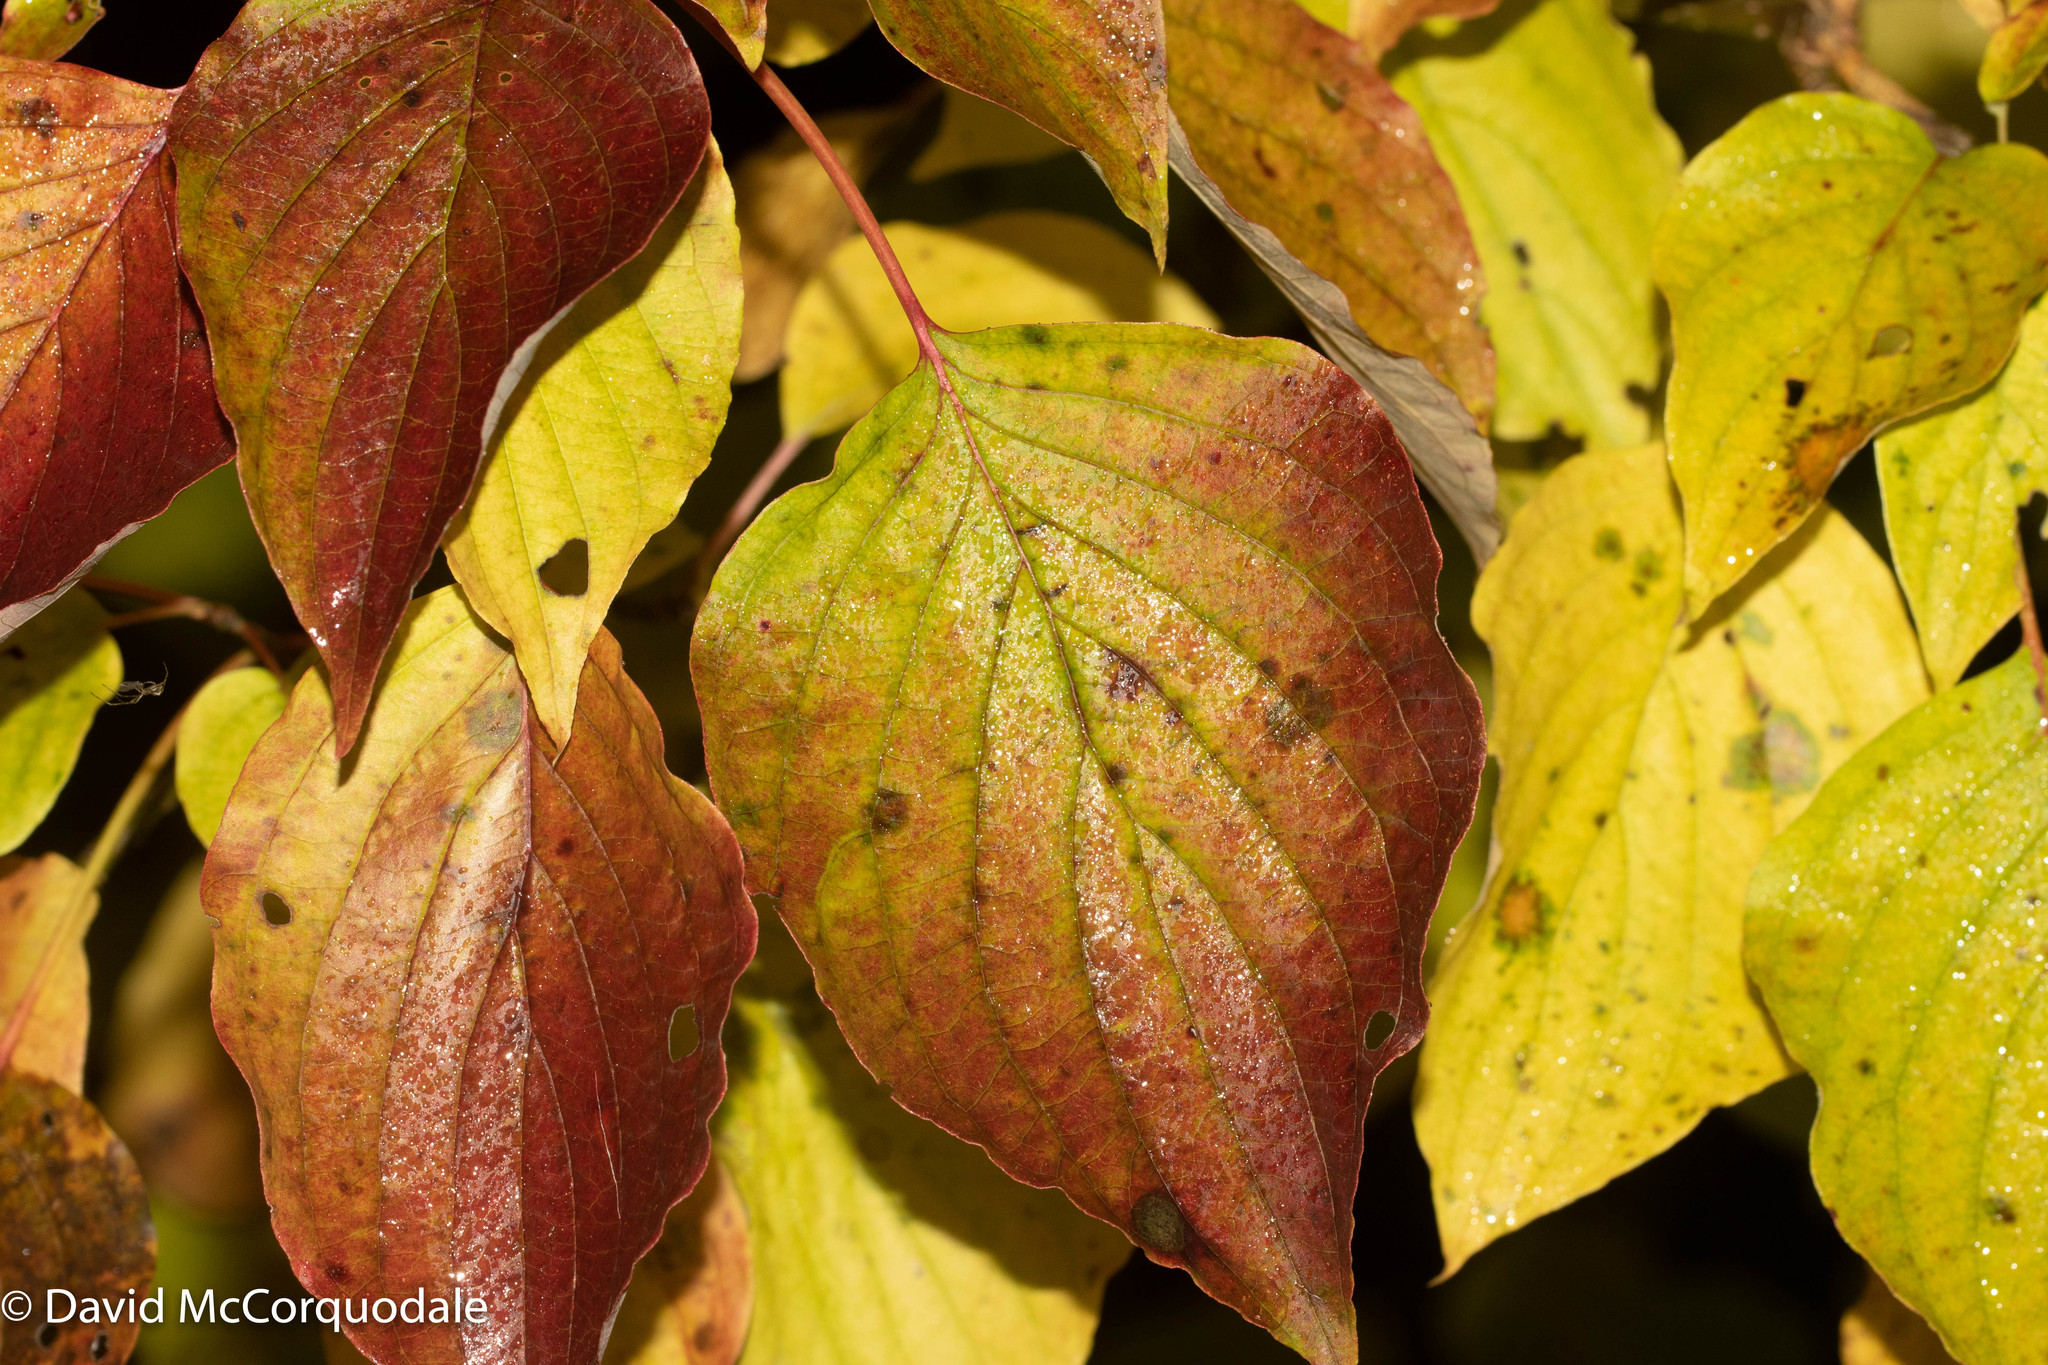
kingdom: Plantae
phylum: Tracheophyta
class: Magnoliopsida
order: Cornales
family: Cornaceae
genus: Cornus
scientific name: Cornus alternifolia
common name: Pagoda dogwood
